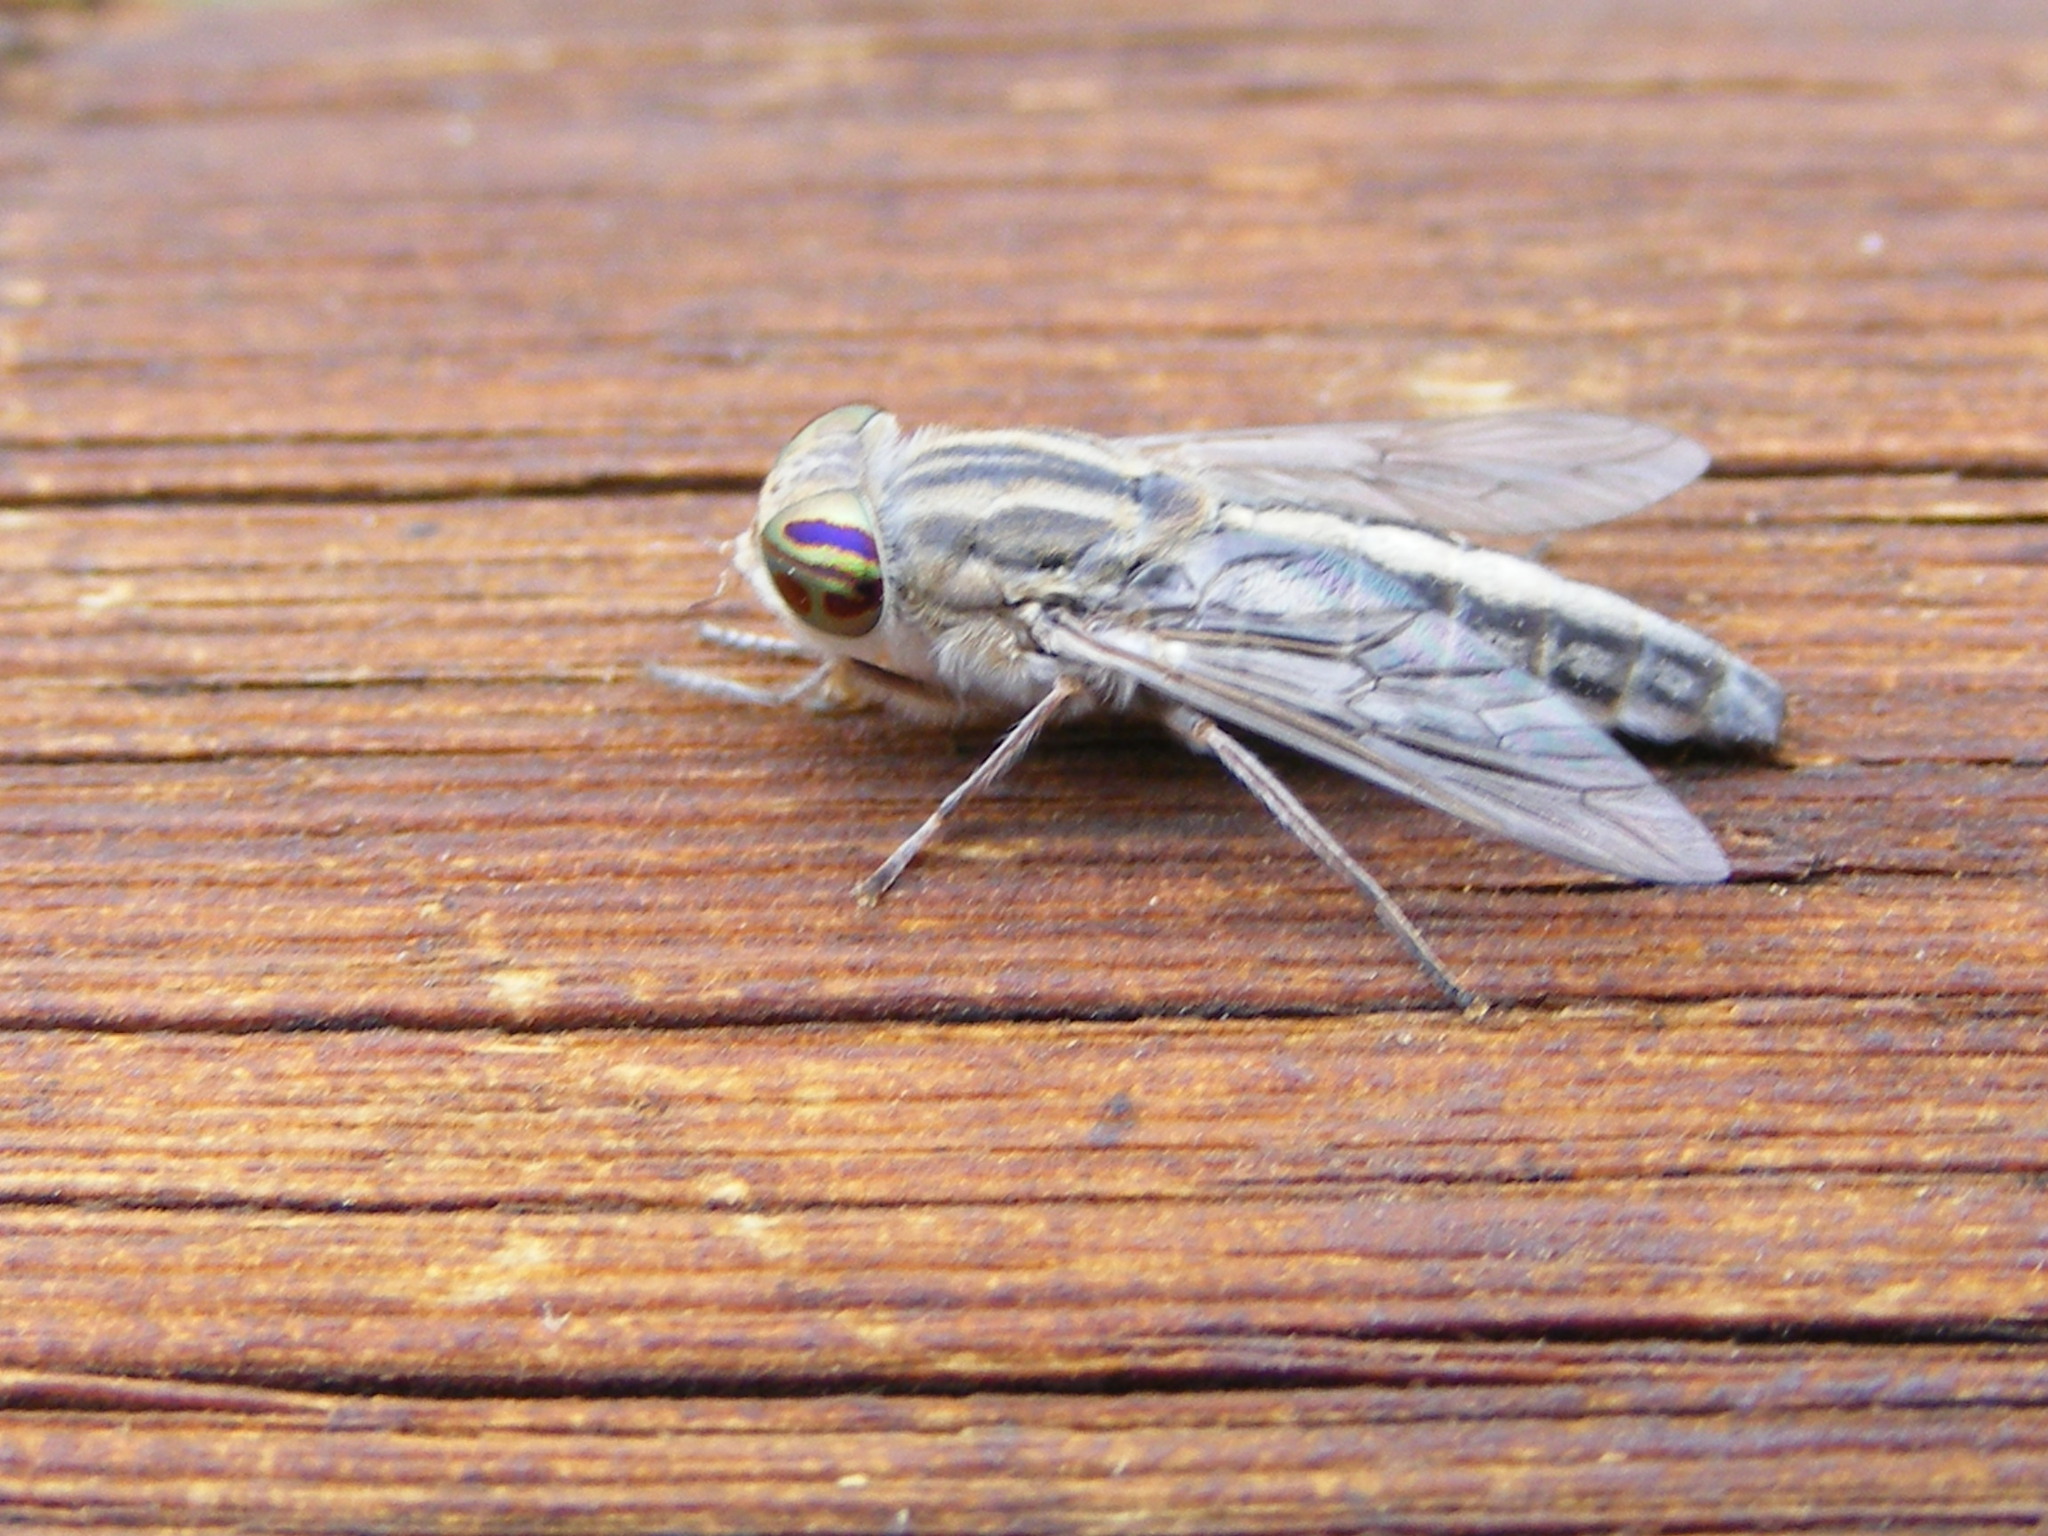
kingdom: Animalia
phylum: Arthropoda
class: Insecta
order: Diptera
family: Tabanidae
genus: Tabanus
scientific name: Tabanus gratus
